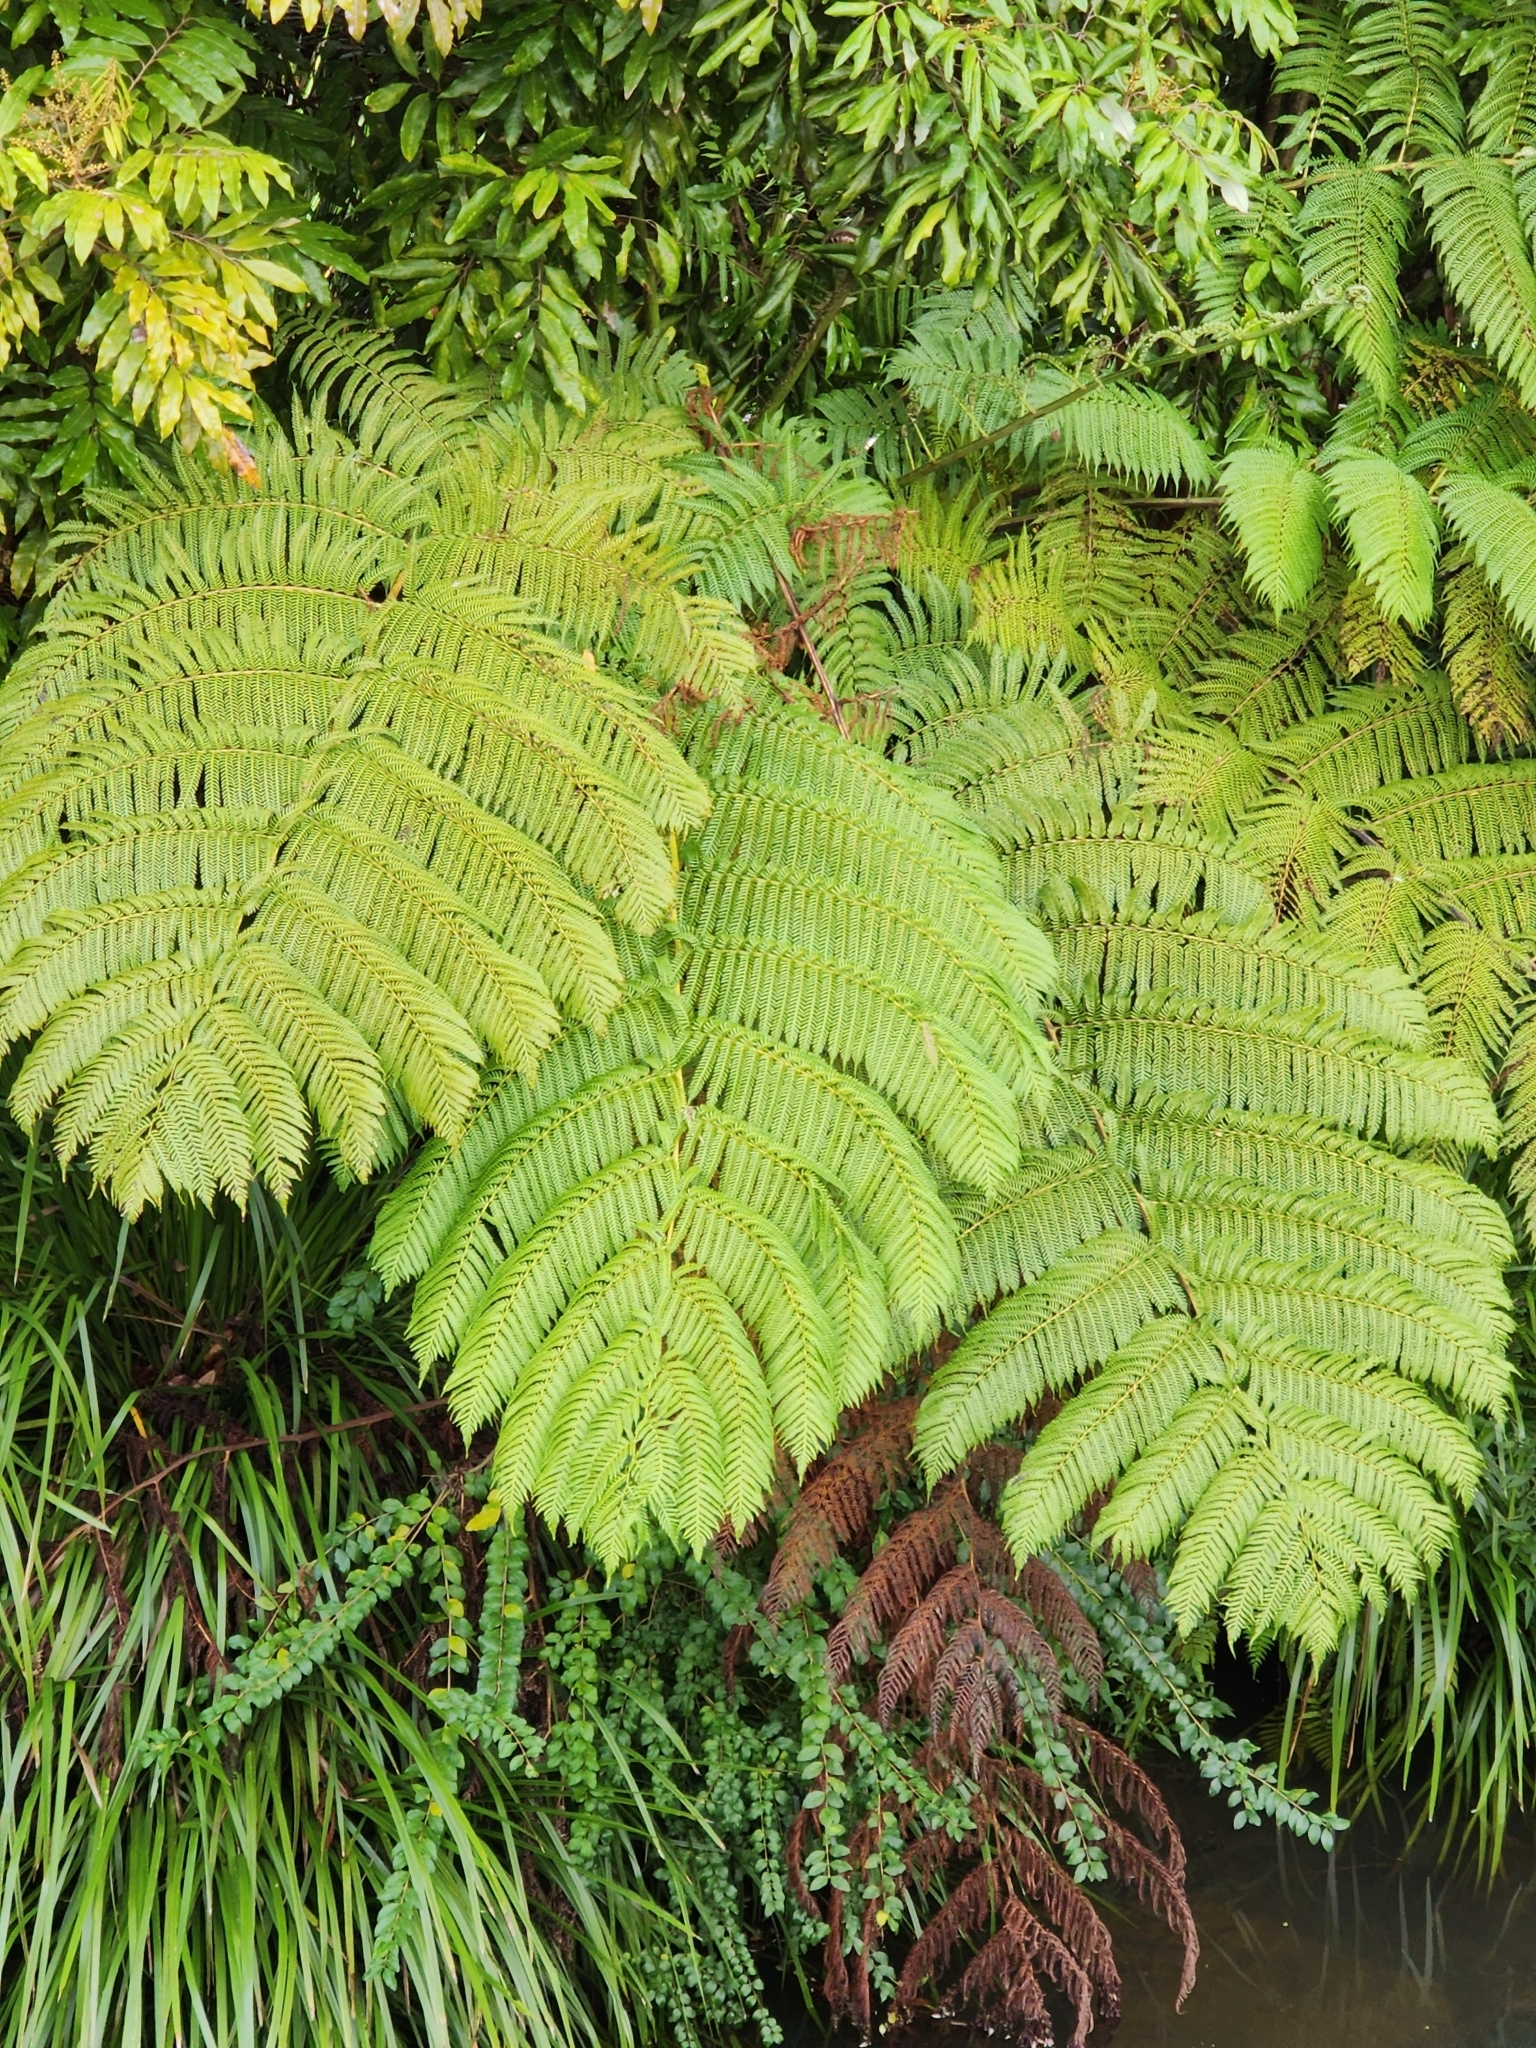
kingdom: Plantae
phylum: Tracheophyta
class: Polypodiopsida
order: Cyatheales
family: Cyatheaceae
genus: Sphaeropteris
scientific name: Sphaeropteris cooperi
